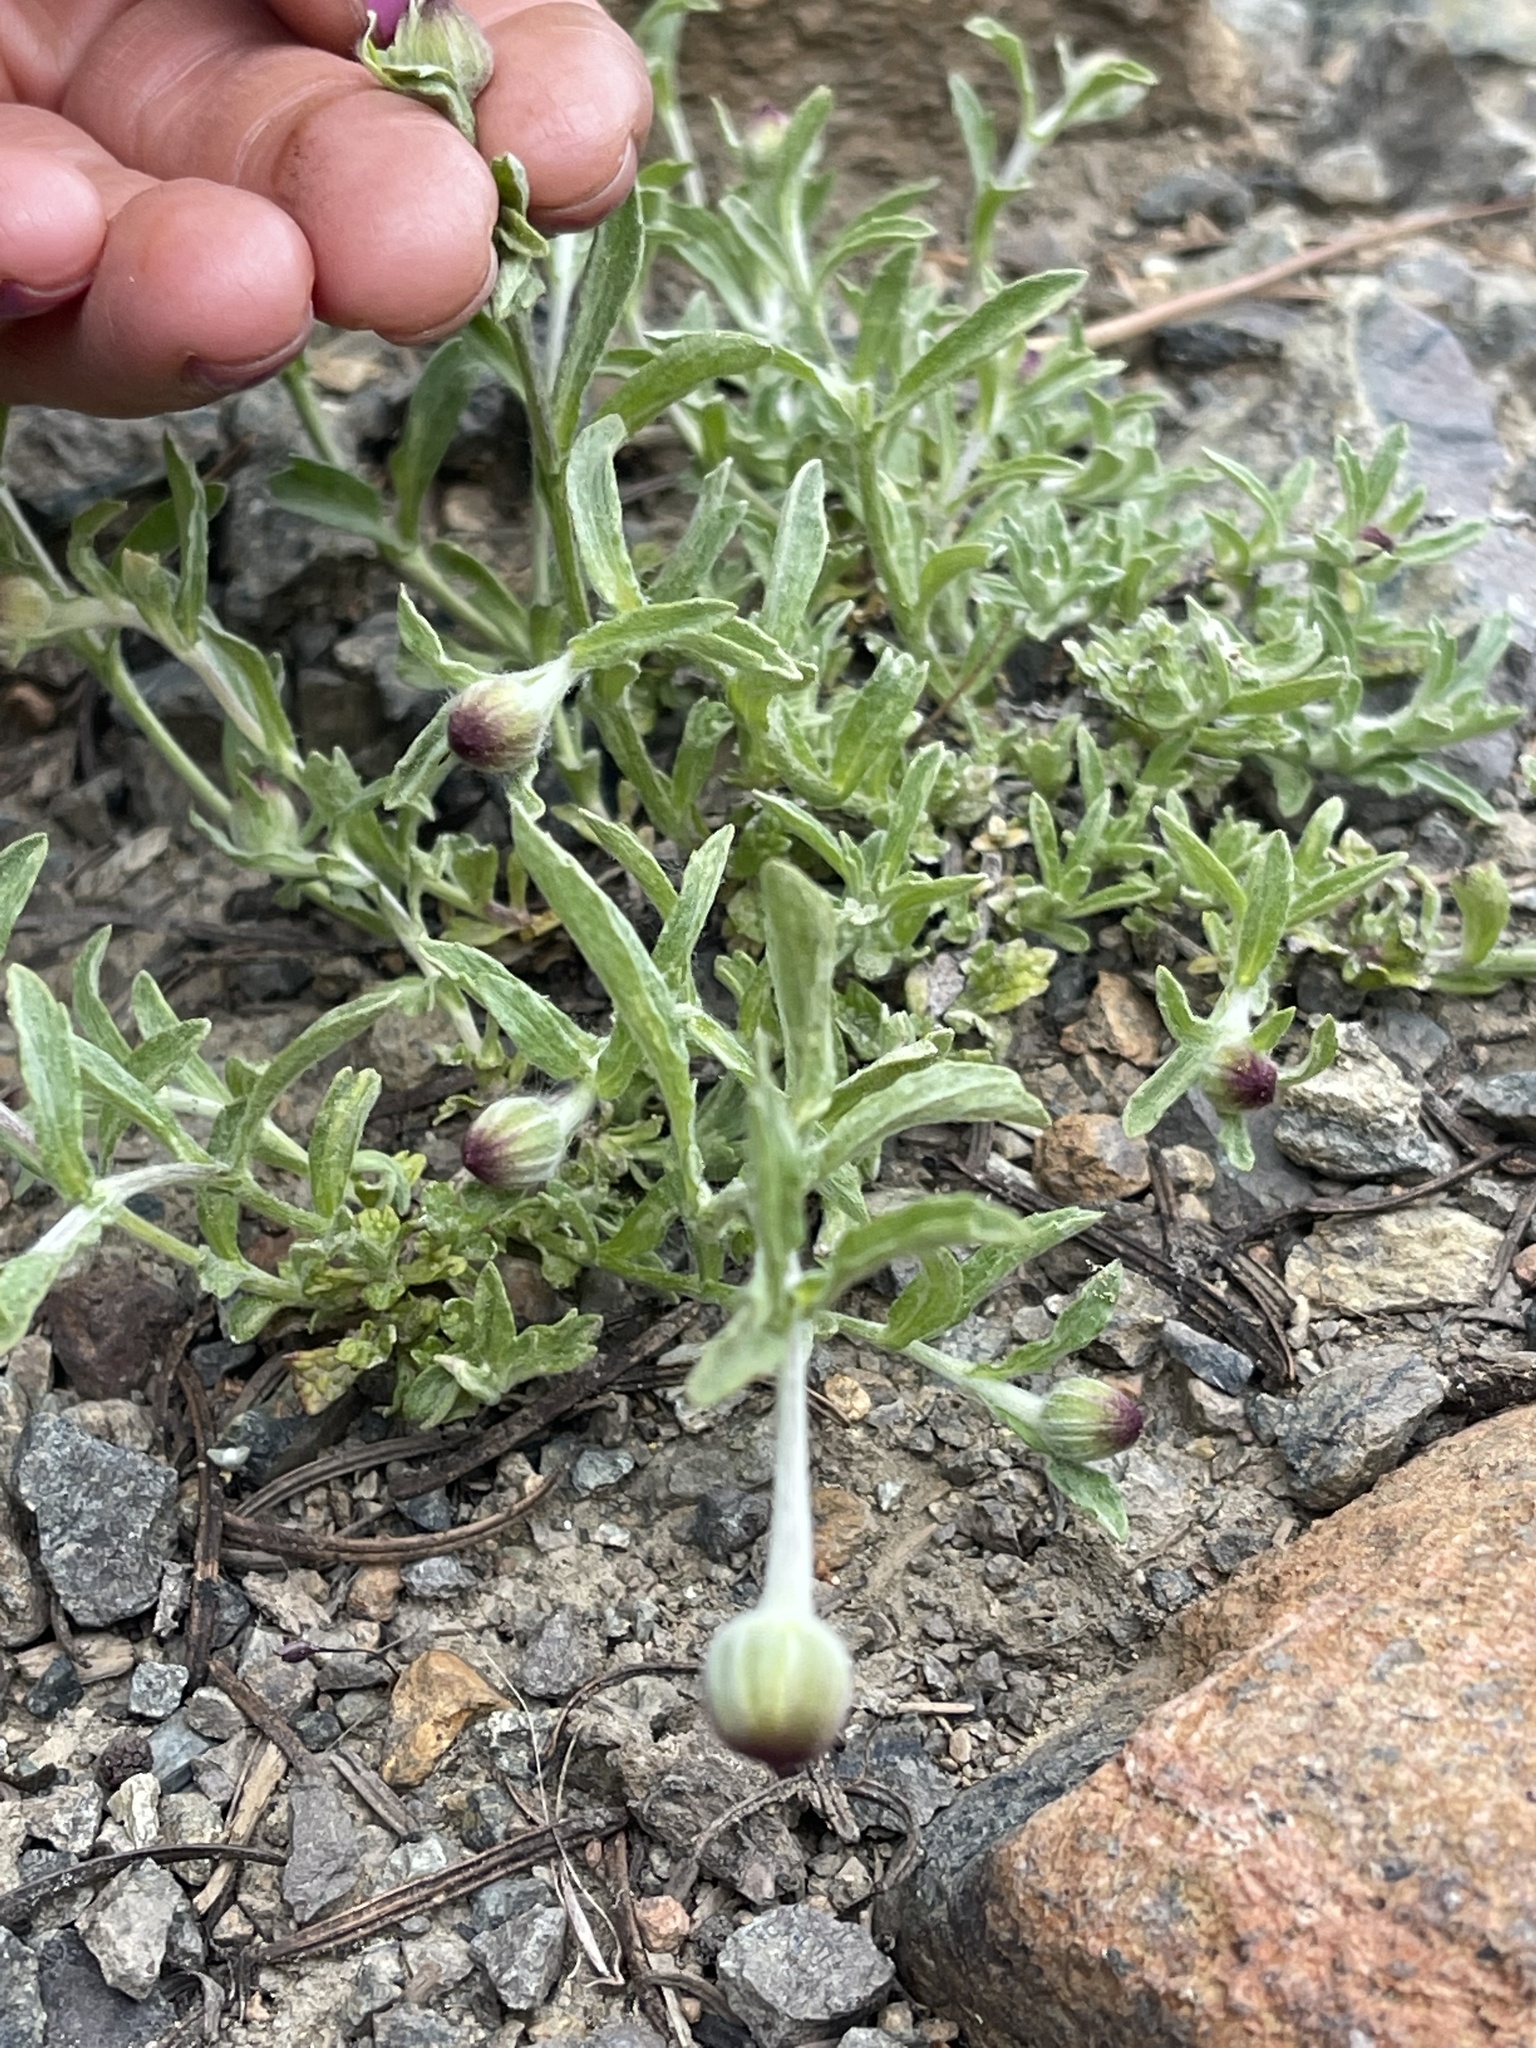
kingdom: Plantae
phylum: Tracheophyta
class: Magnoliopsida
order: Asterales
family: Asteraceae
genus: Eriophyllum
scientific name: Eriophyllum lanatum
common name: Common woolly-sunflower
